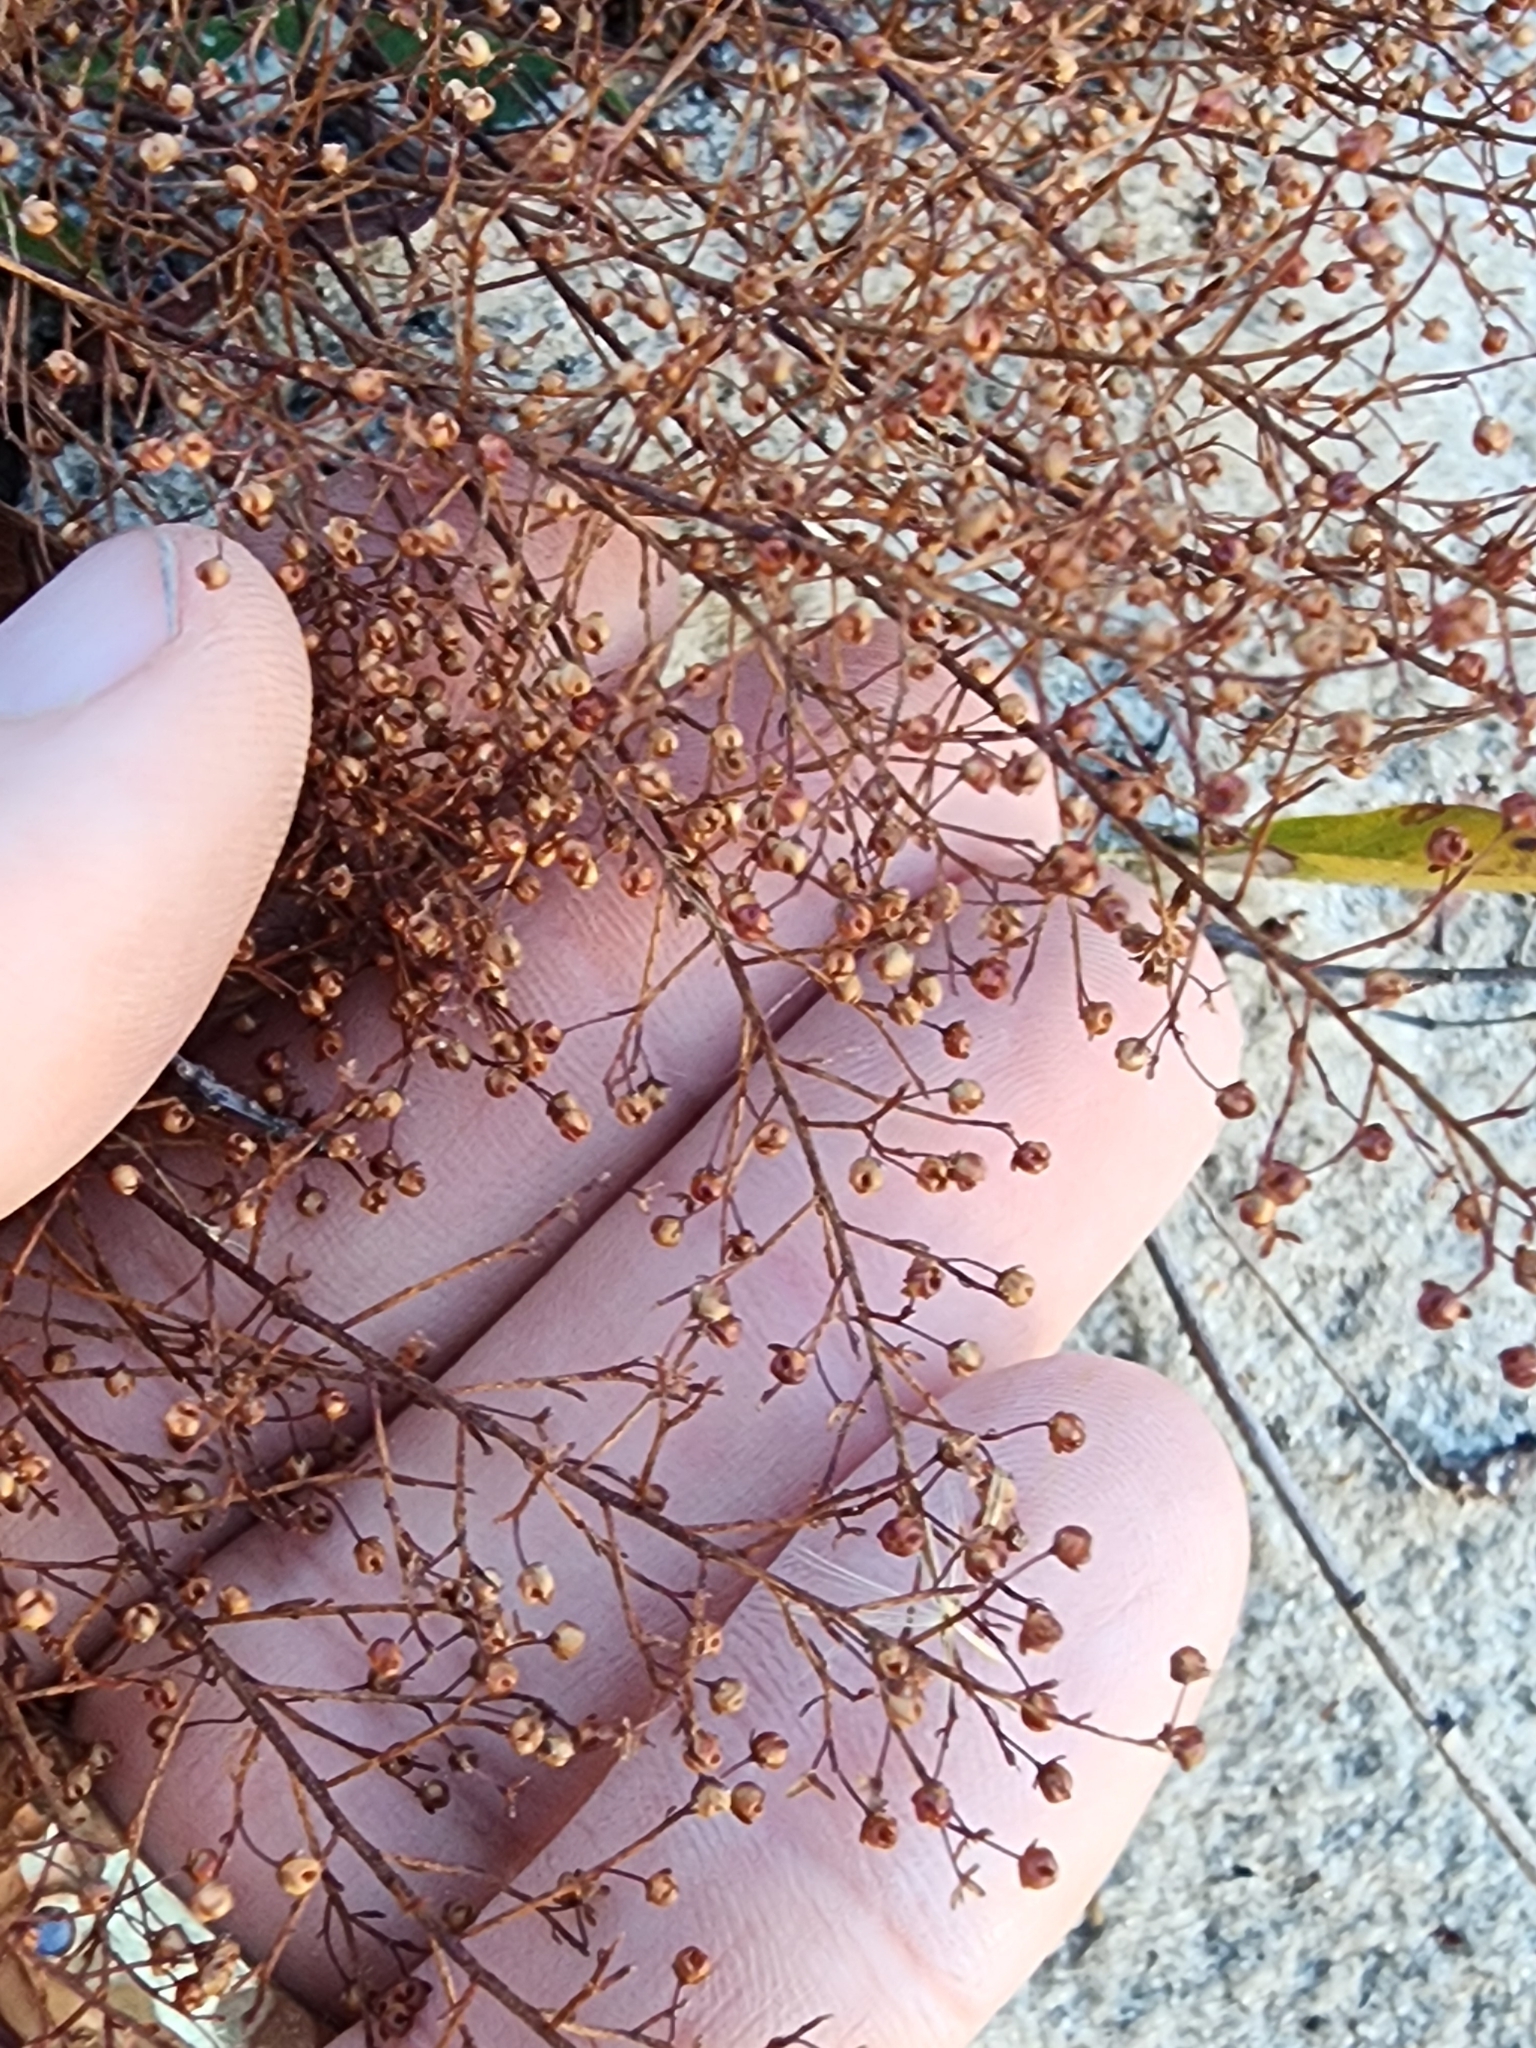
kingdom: Plantae
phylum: Tracheophyta
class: Magnoliopsida
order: Malvales
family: Cistaceae
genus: Lechea
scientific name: Lechea deckertii
